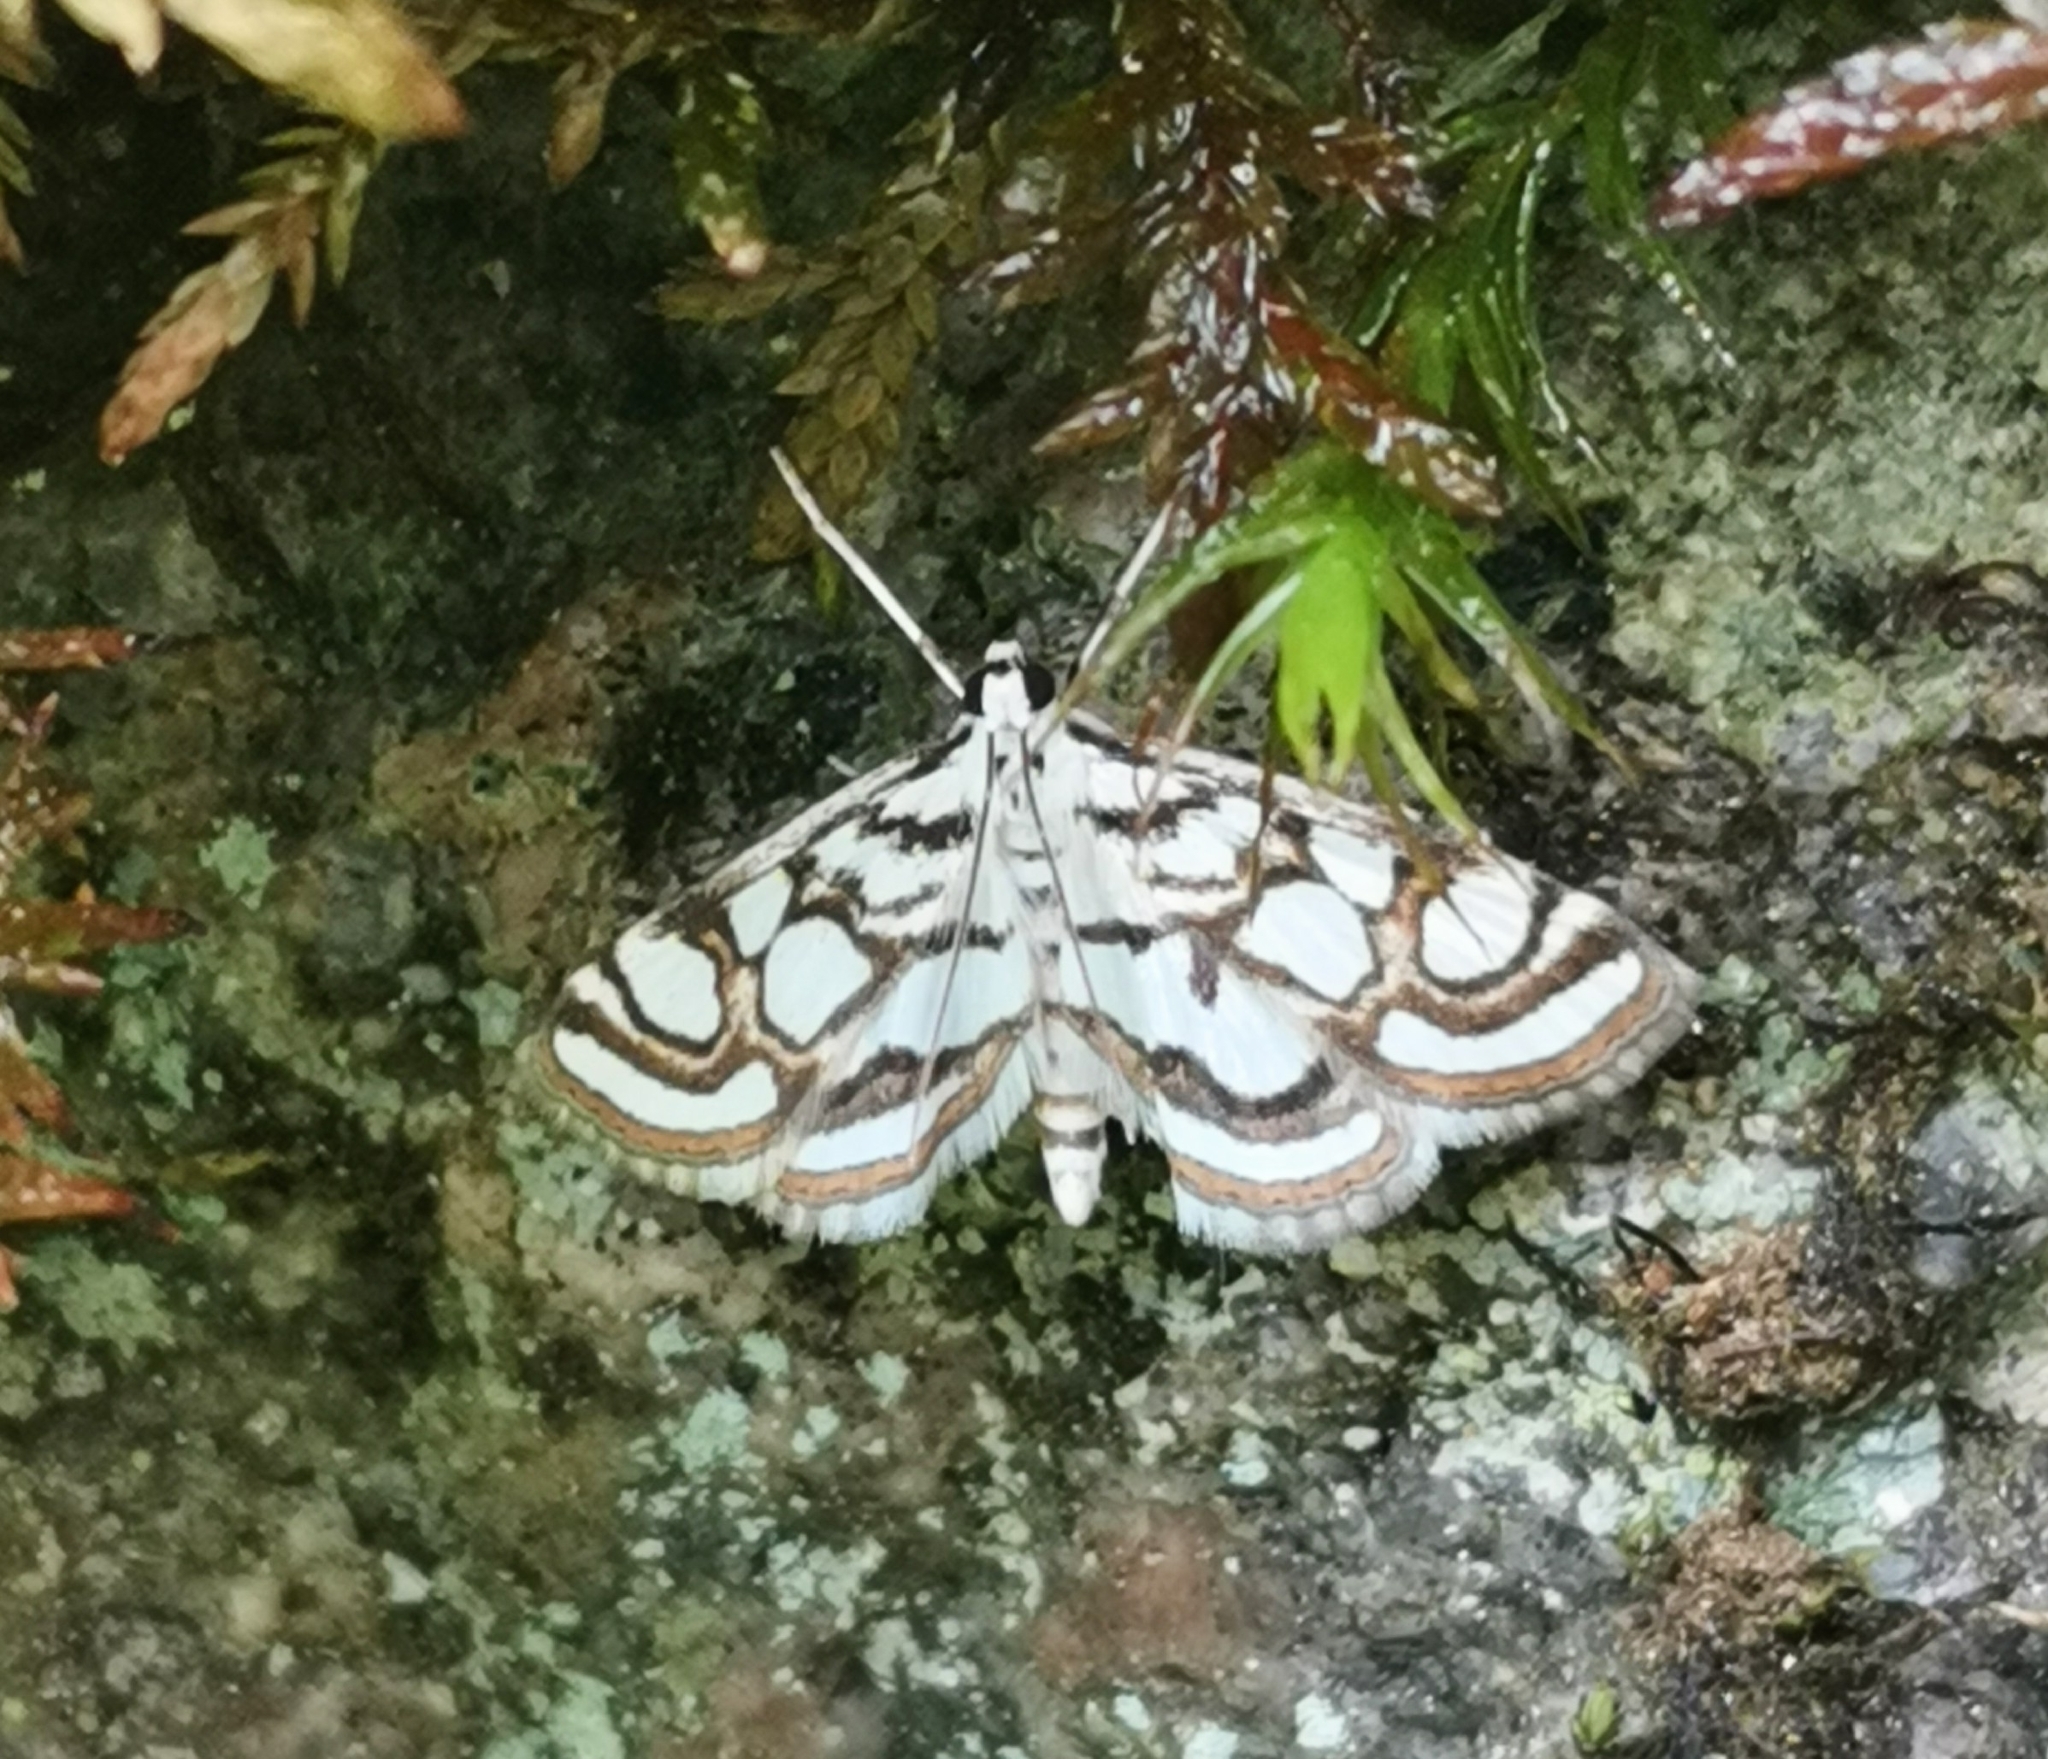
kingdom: Animalia
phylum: Arthropoda
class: Insecta
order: Lepidoptera
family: Crambidae
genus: Nymphula
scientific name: Nymphula nitidulata
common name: Beautiful china mark
